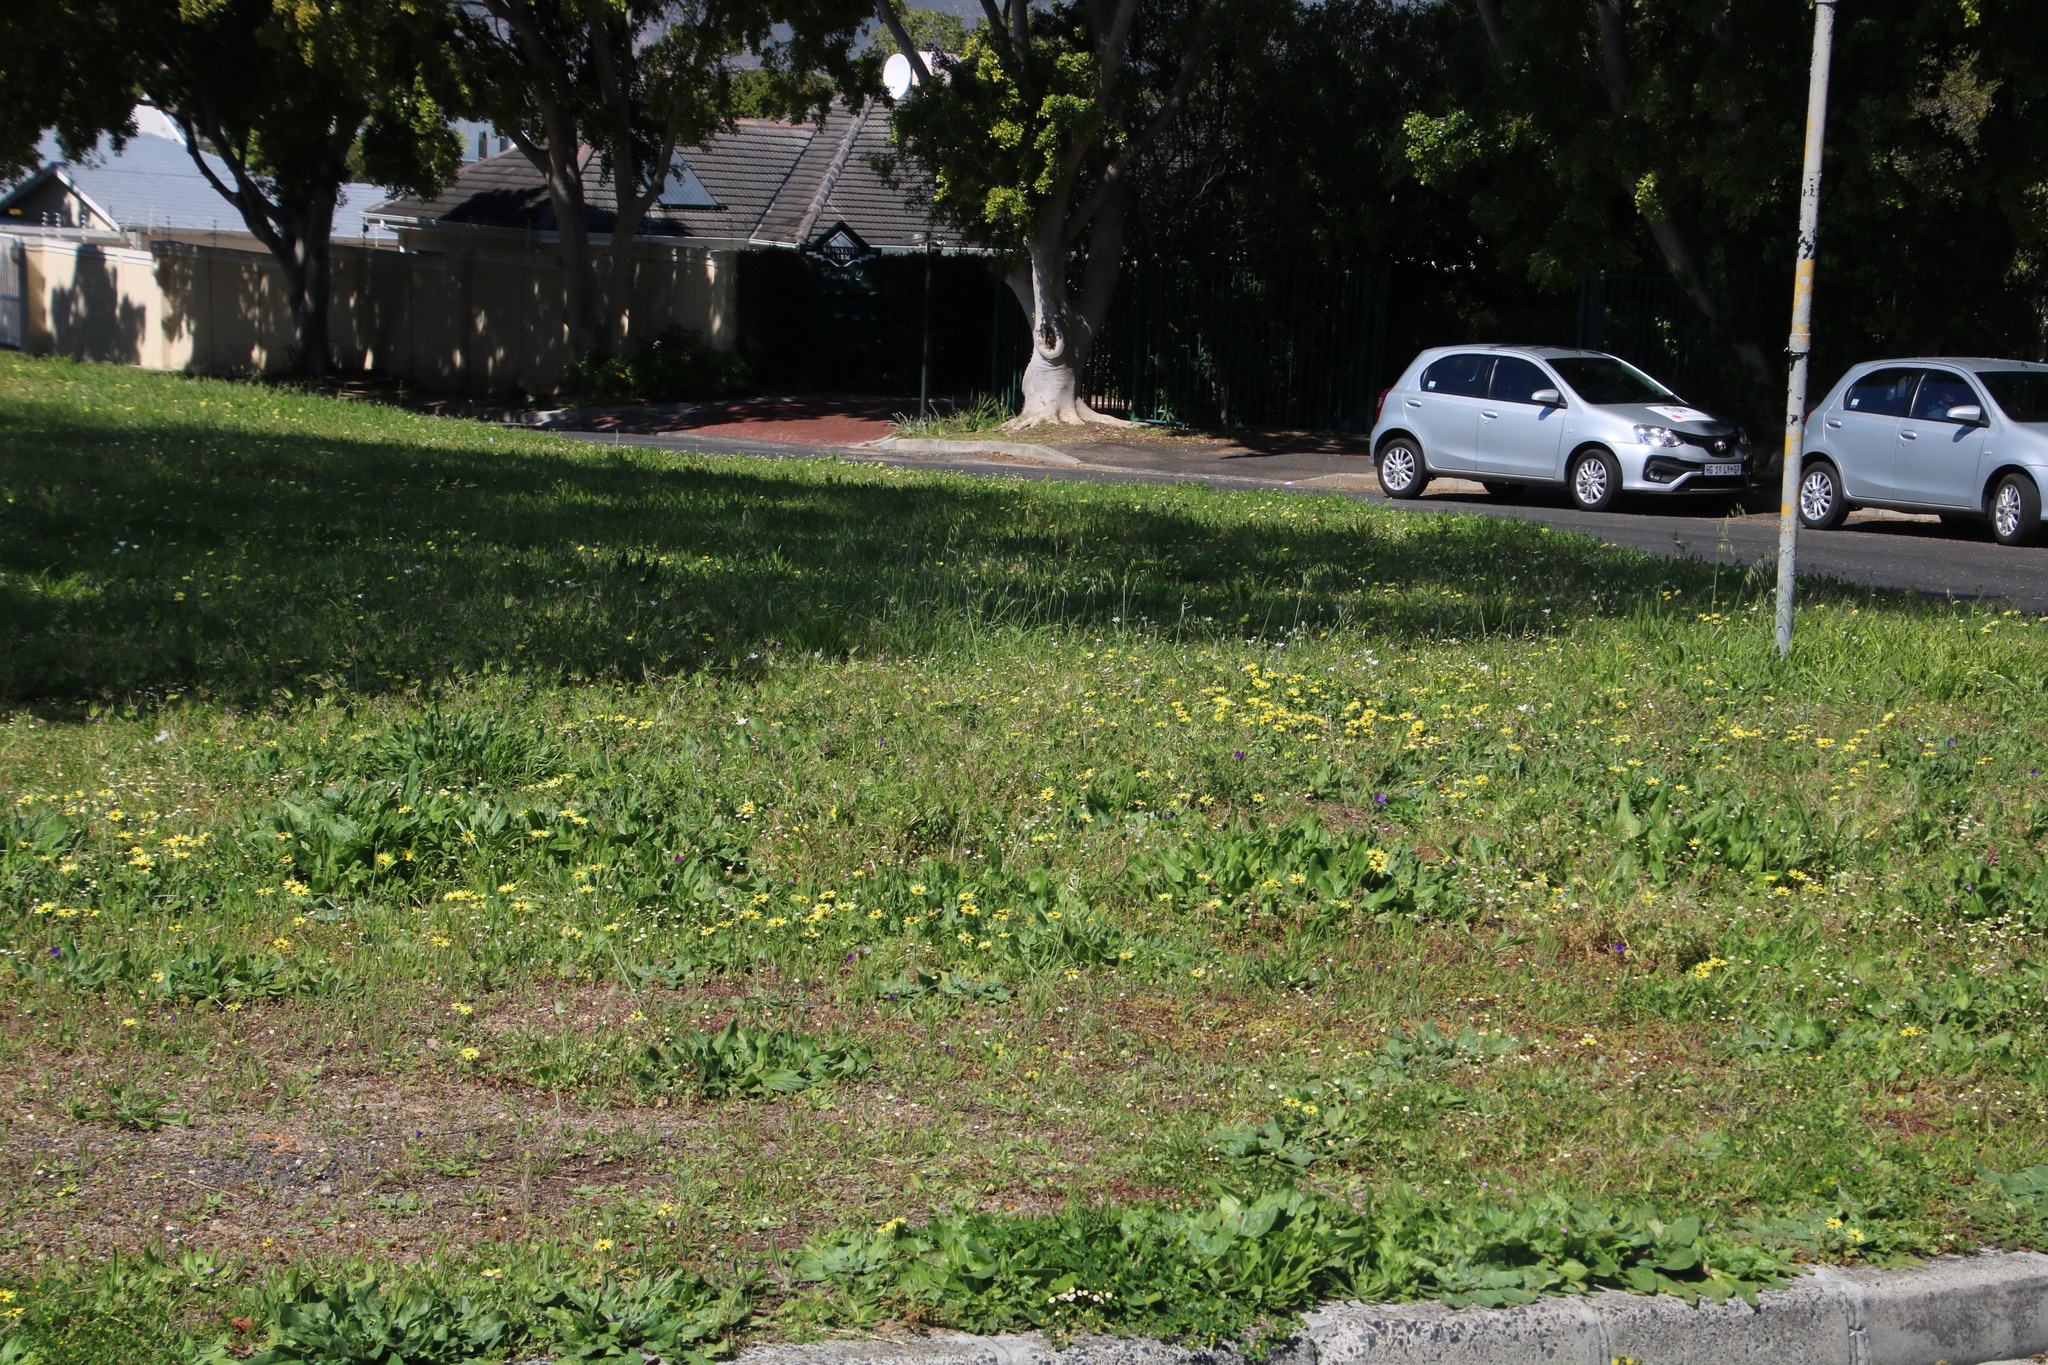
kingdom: Plantae
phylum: Tracheophyta
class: Magnoliopsida
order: Asterales
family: Asteraceae
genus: Arctotheca
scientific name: Arctotheca calendula
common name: Capeweed
